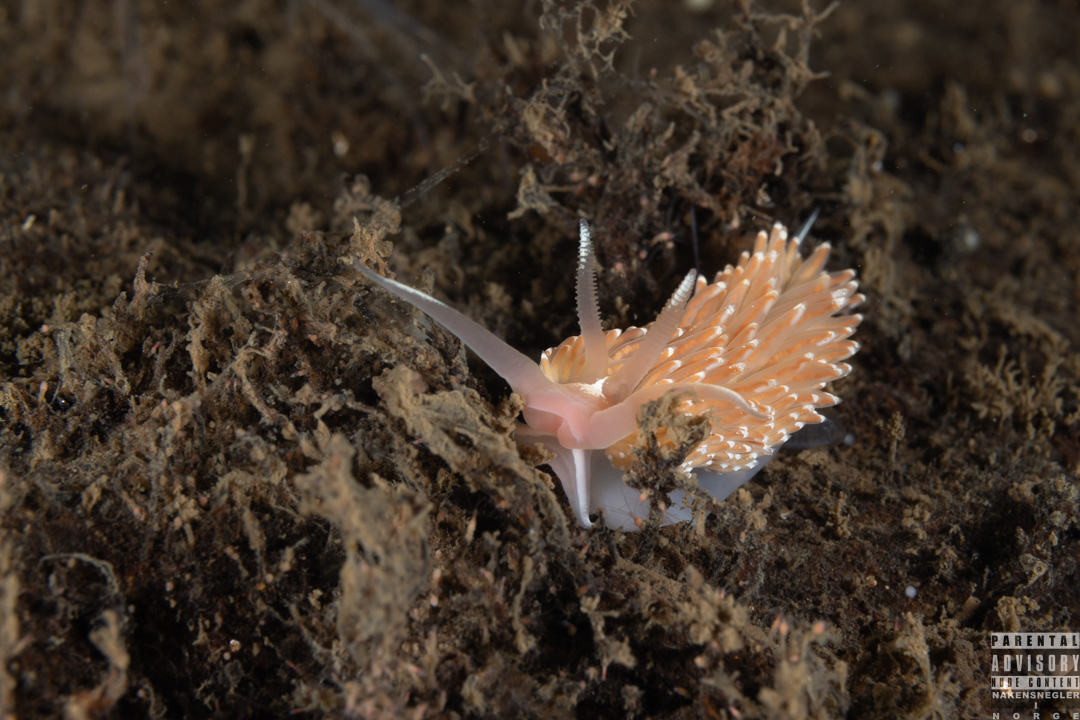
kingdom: Animalia
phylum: Mollusca
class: Gastropoda
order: Nudibranchia
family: Facelinidae
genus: Facelina
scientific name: Facelina bostoniensis
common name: Boston facelina
